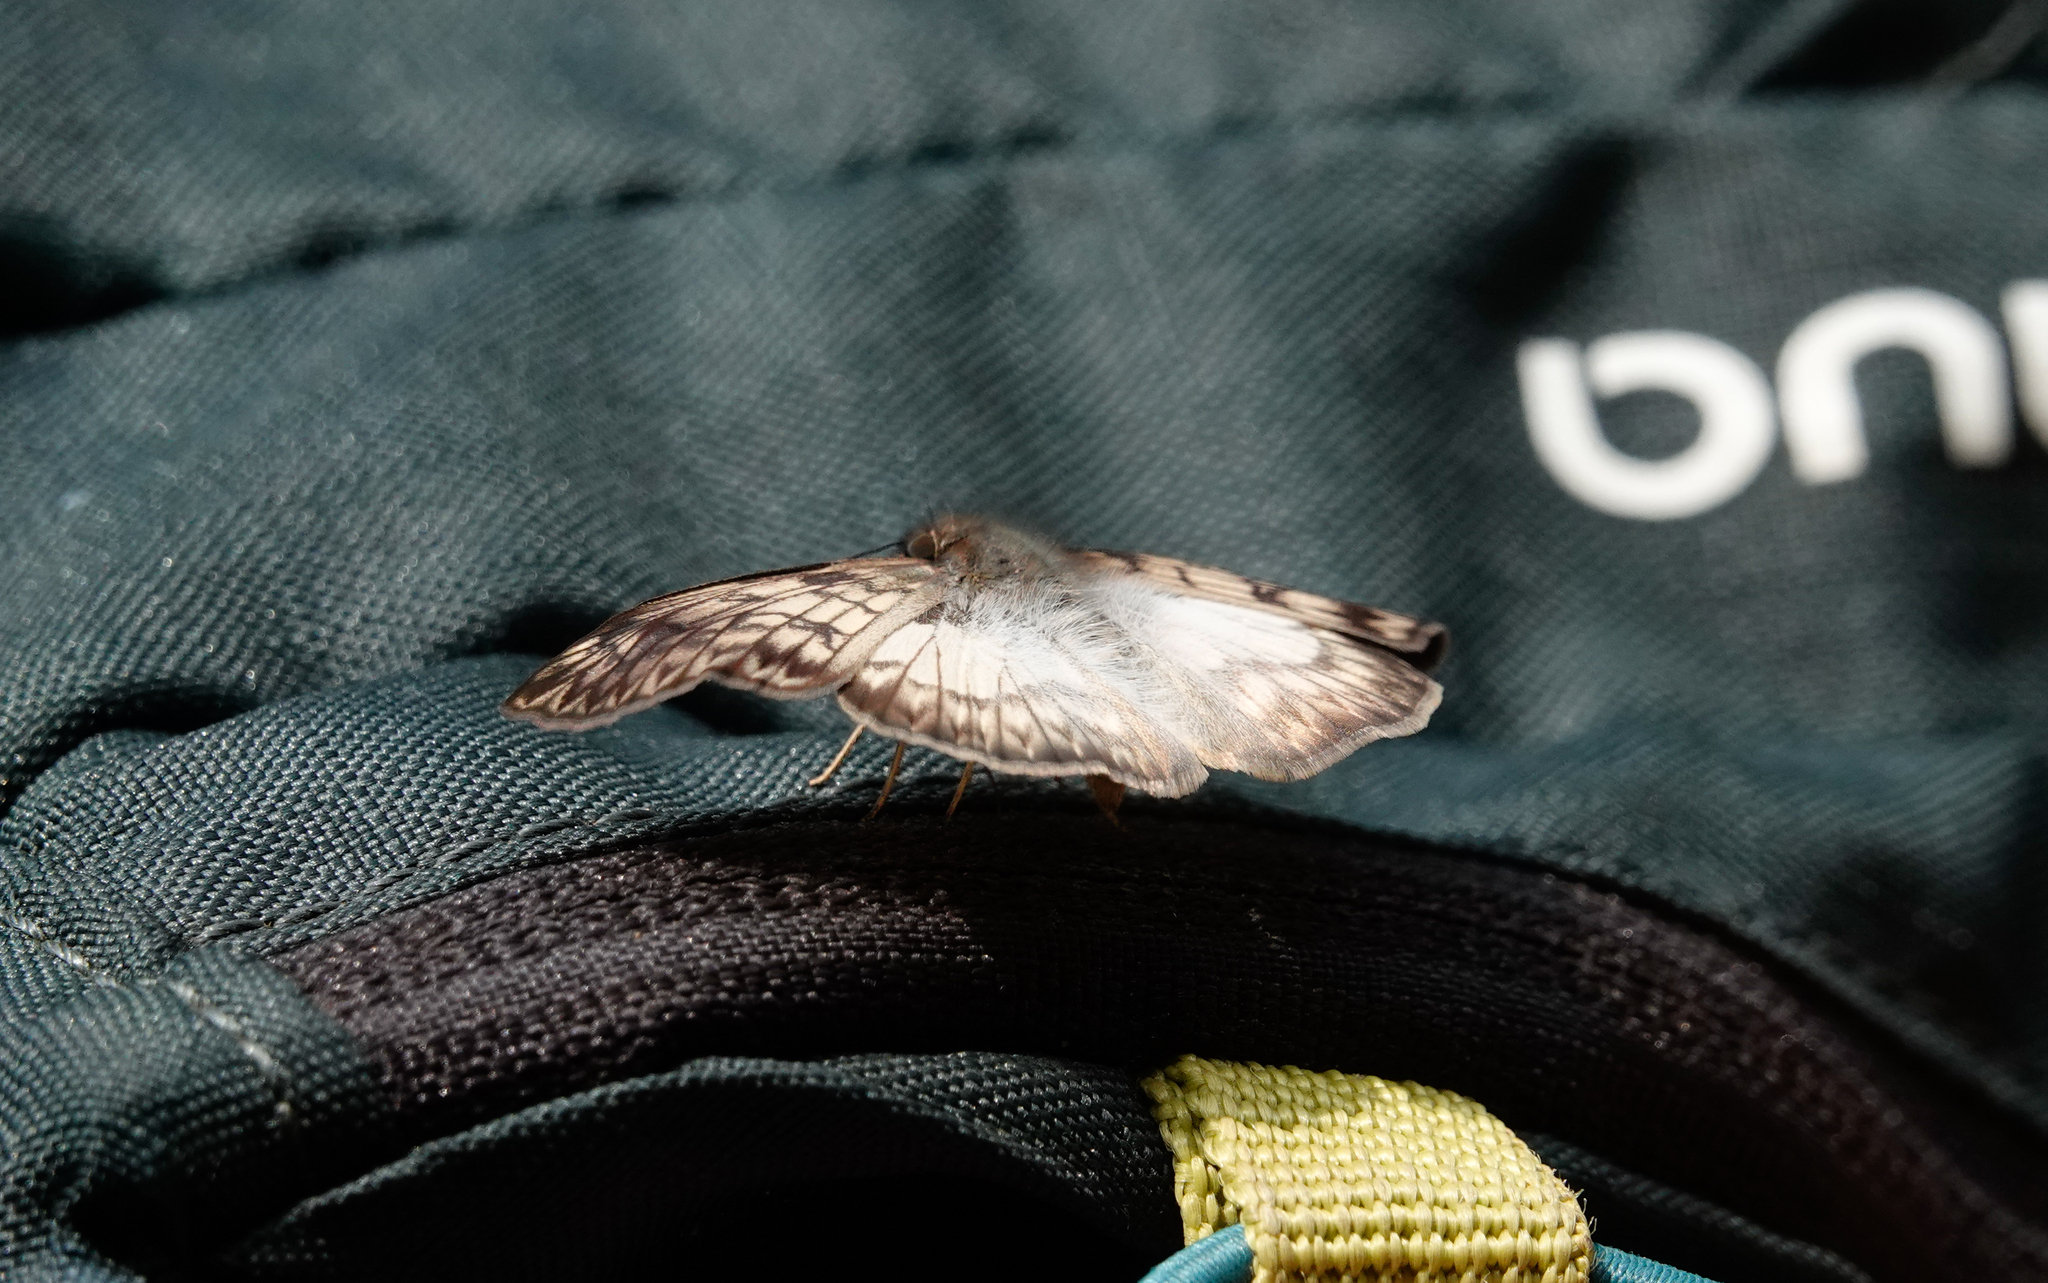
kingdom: Animalia
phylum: Arthropoda
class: Insecta
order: Lepidoptera
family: Hesperiidae
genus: Mylon
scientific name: Mylon maimon
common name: Common mylon
